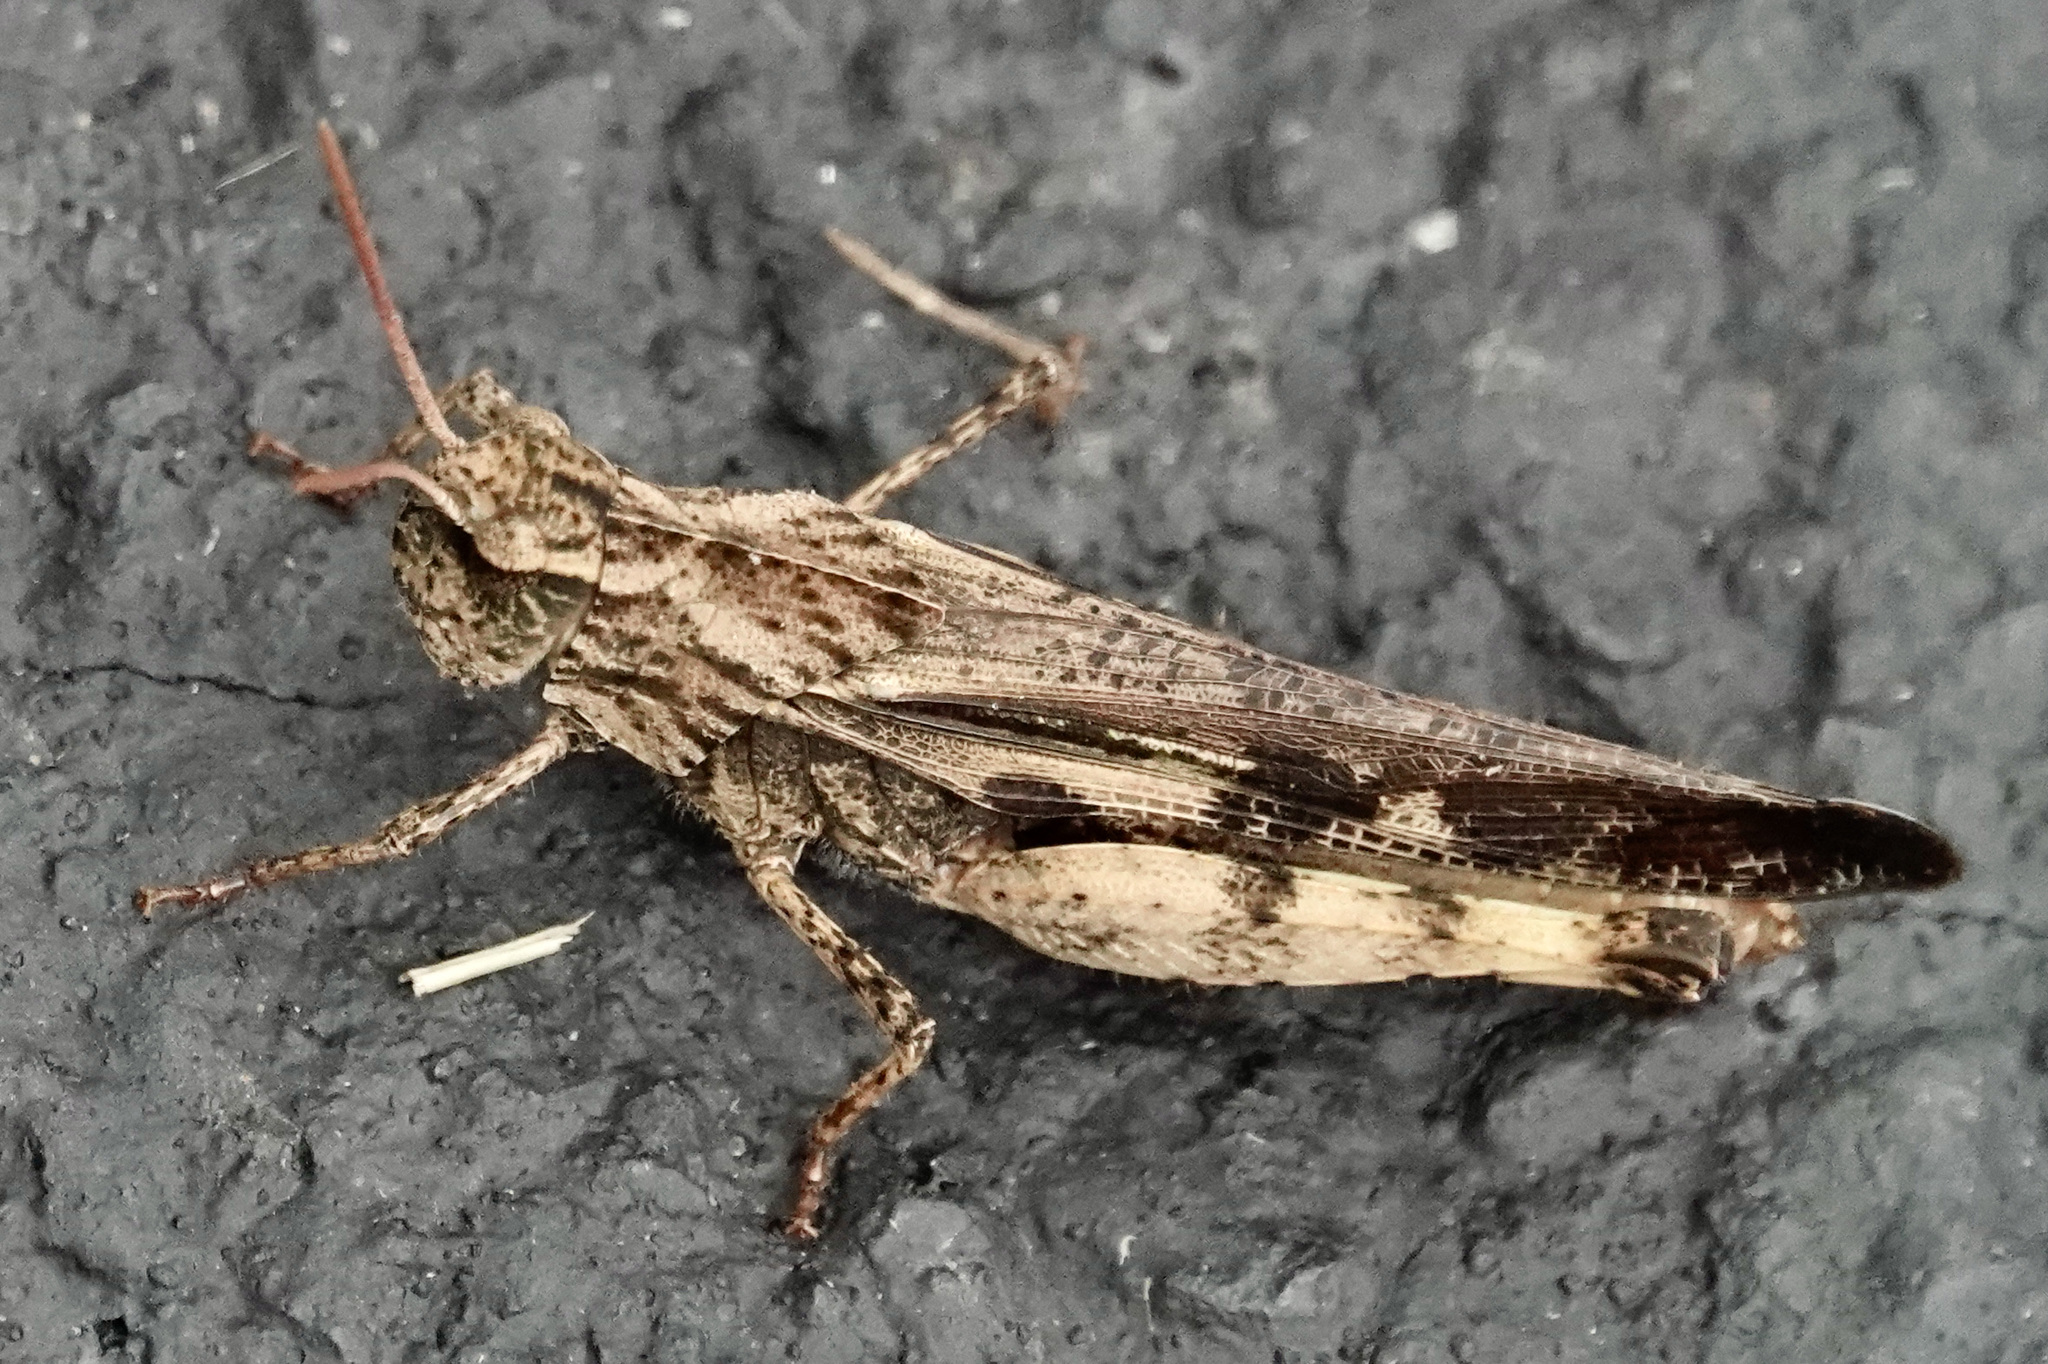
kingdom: Animalia
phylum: Arthropoda
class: Insecta
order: Orthoptera
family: Acrididae
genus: Chortophaga
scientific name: Chortophaga viridifasciata
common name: Green-striped grasshopper
